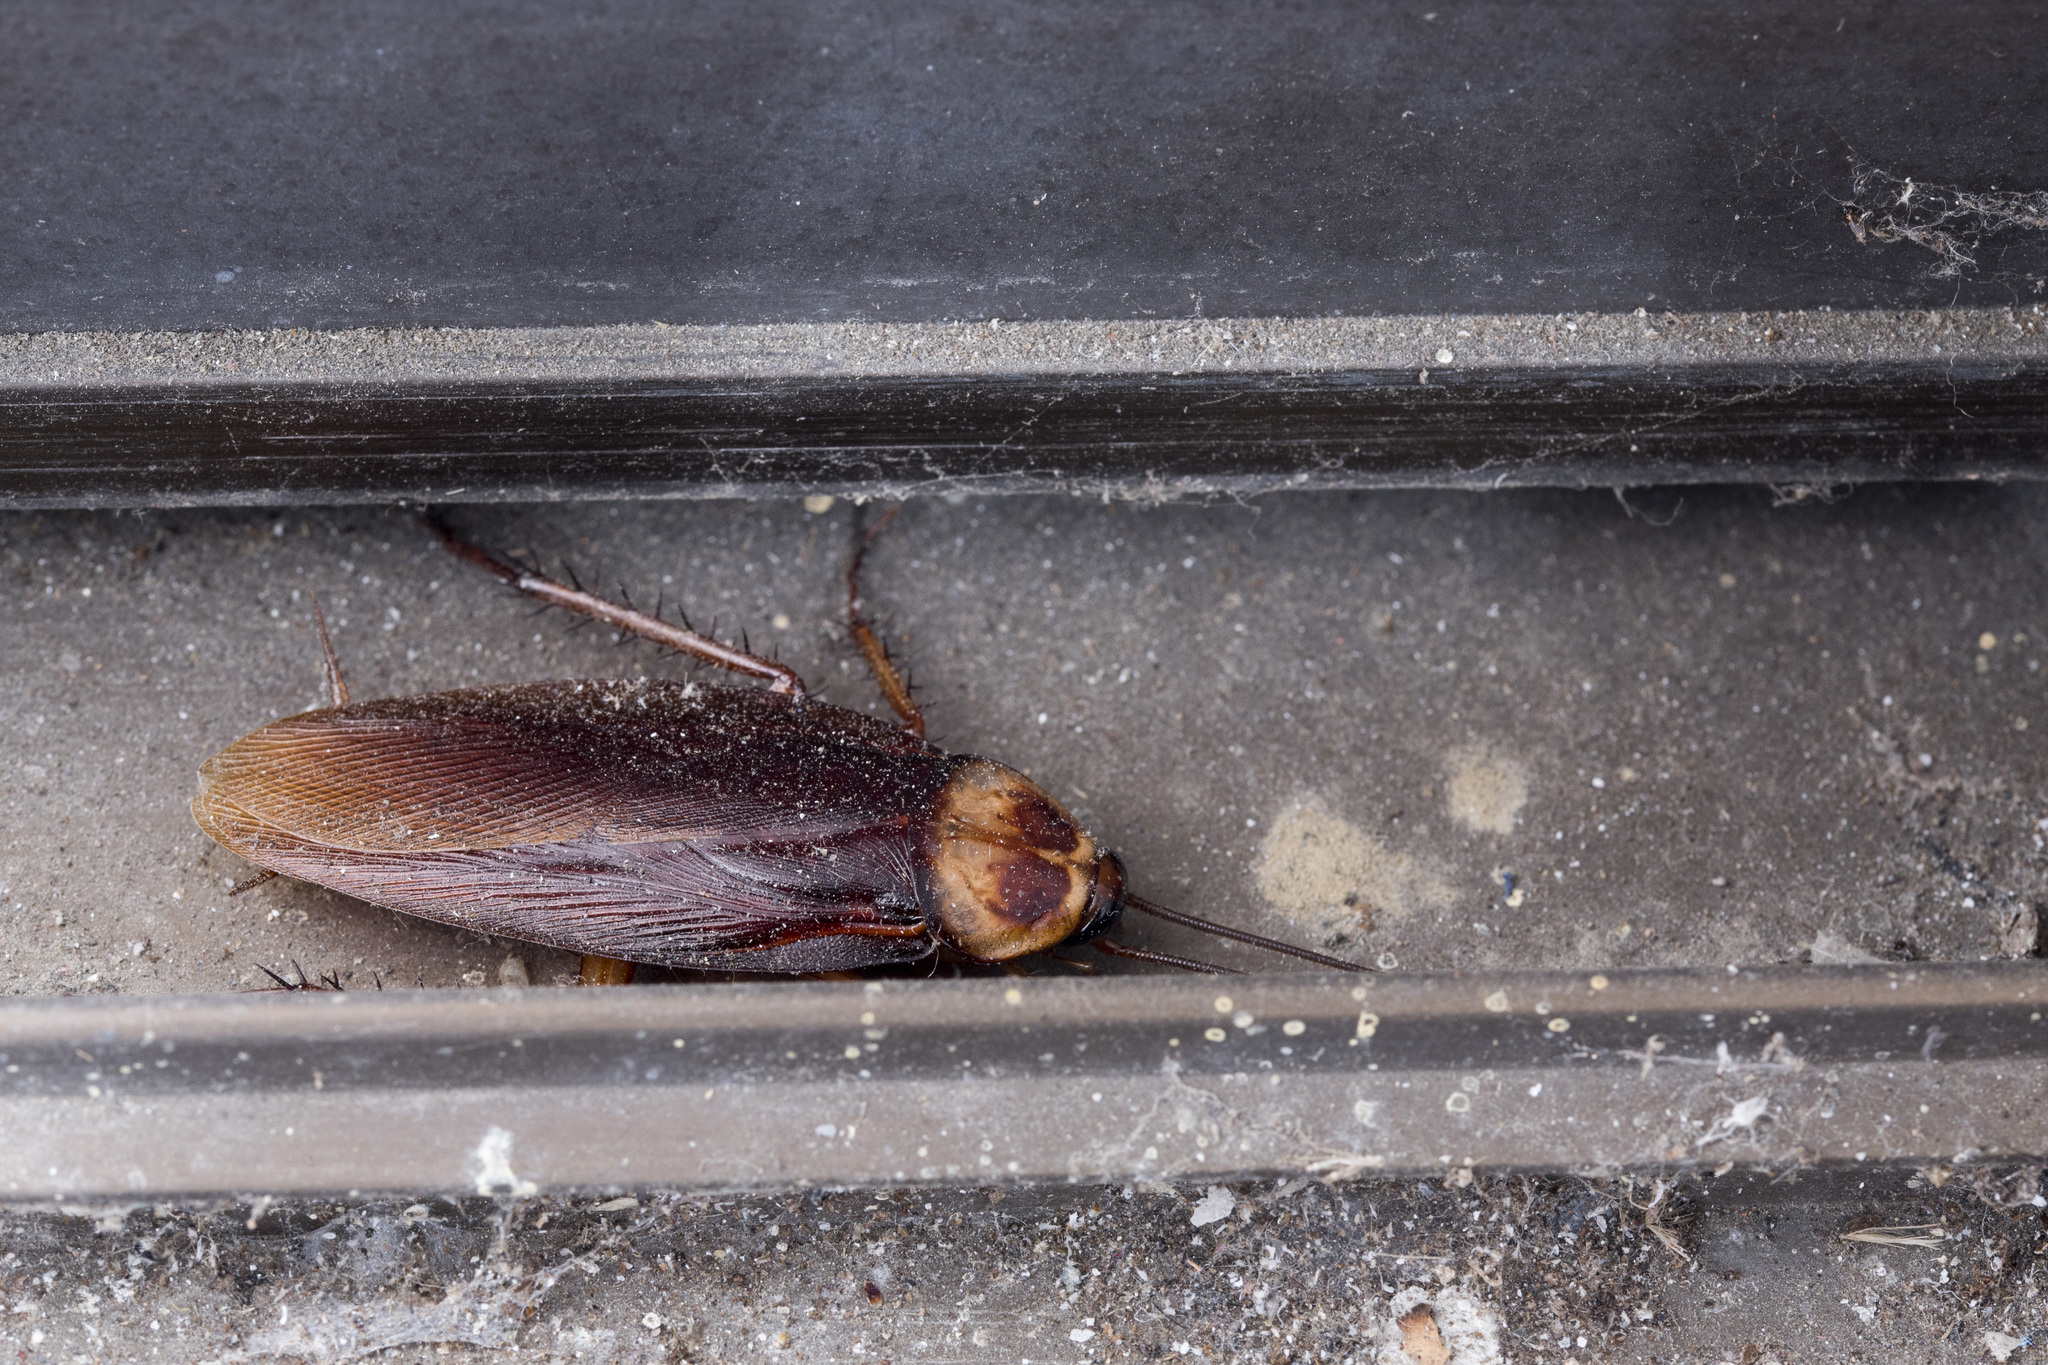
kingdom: Animalia
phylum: Arthropoda
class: Insecta
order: Blattodea
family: Blattidae
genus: Periplaneta
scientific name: Periplaneta americana
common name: American cockroach
